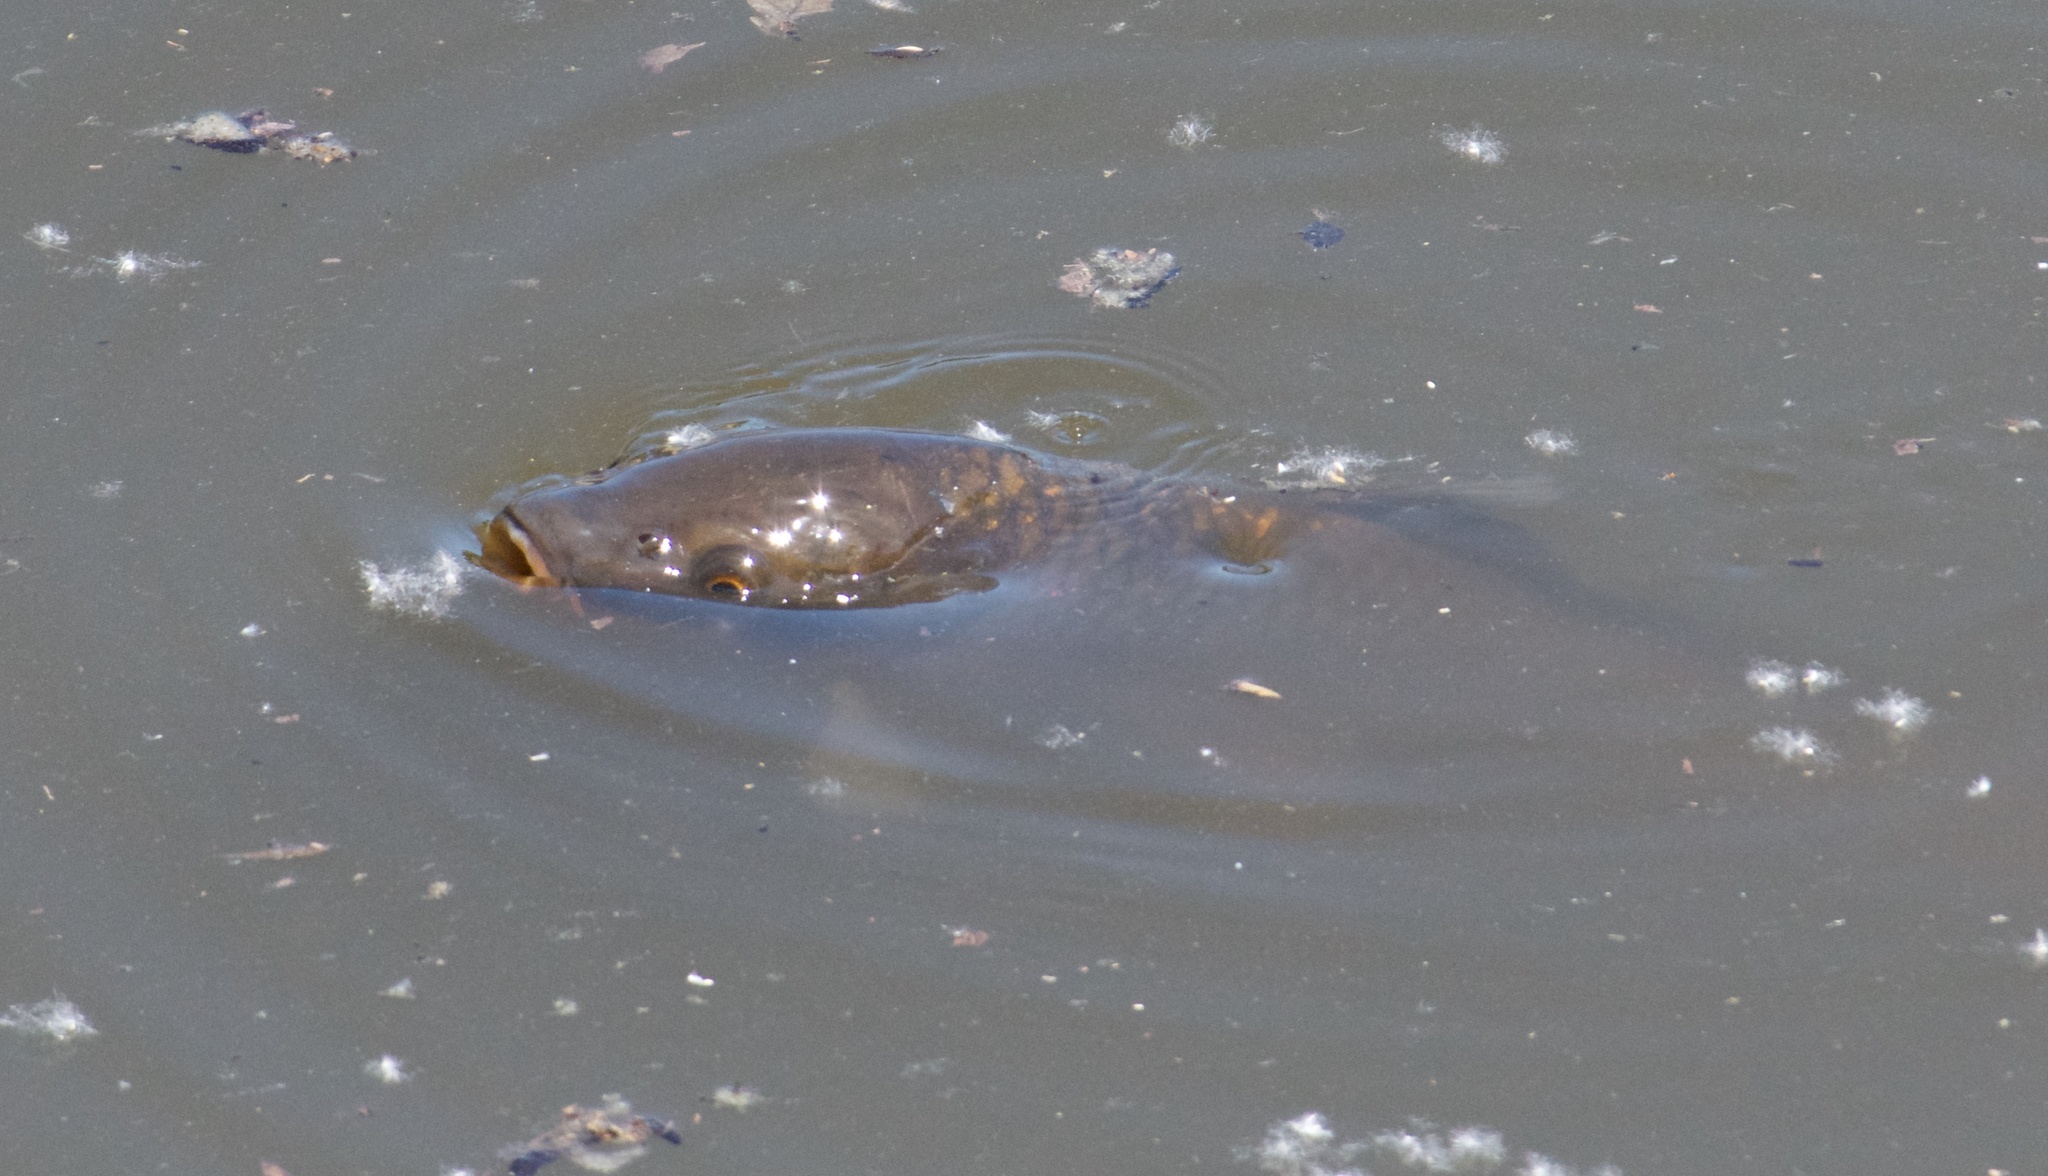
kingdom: Animalia
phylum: Chordata
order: Cypriniformes
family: Cyprinidae
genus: Cyprinus
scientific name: Cyprinus carpio
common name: Common carp
